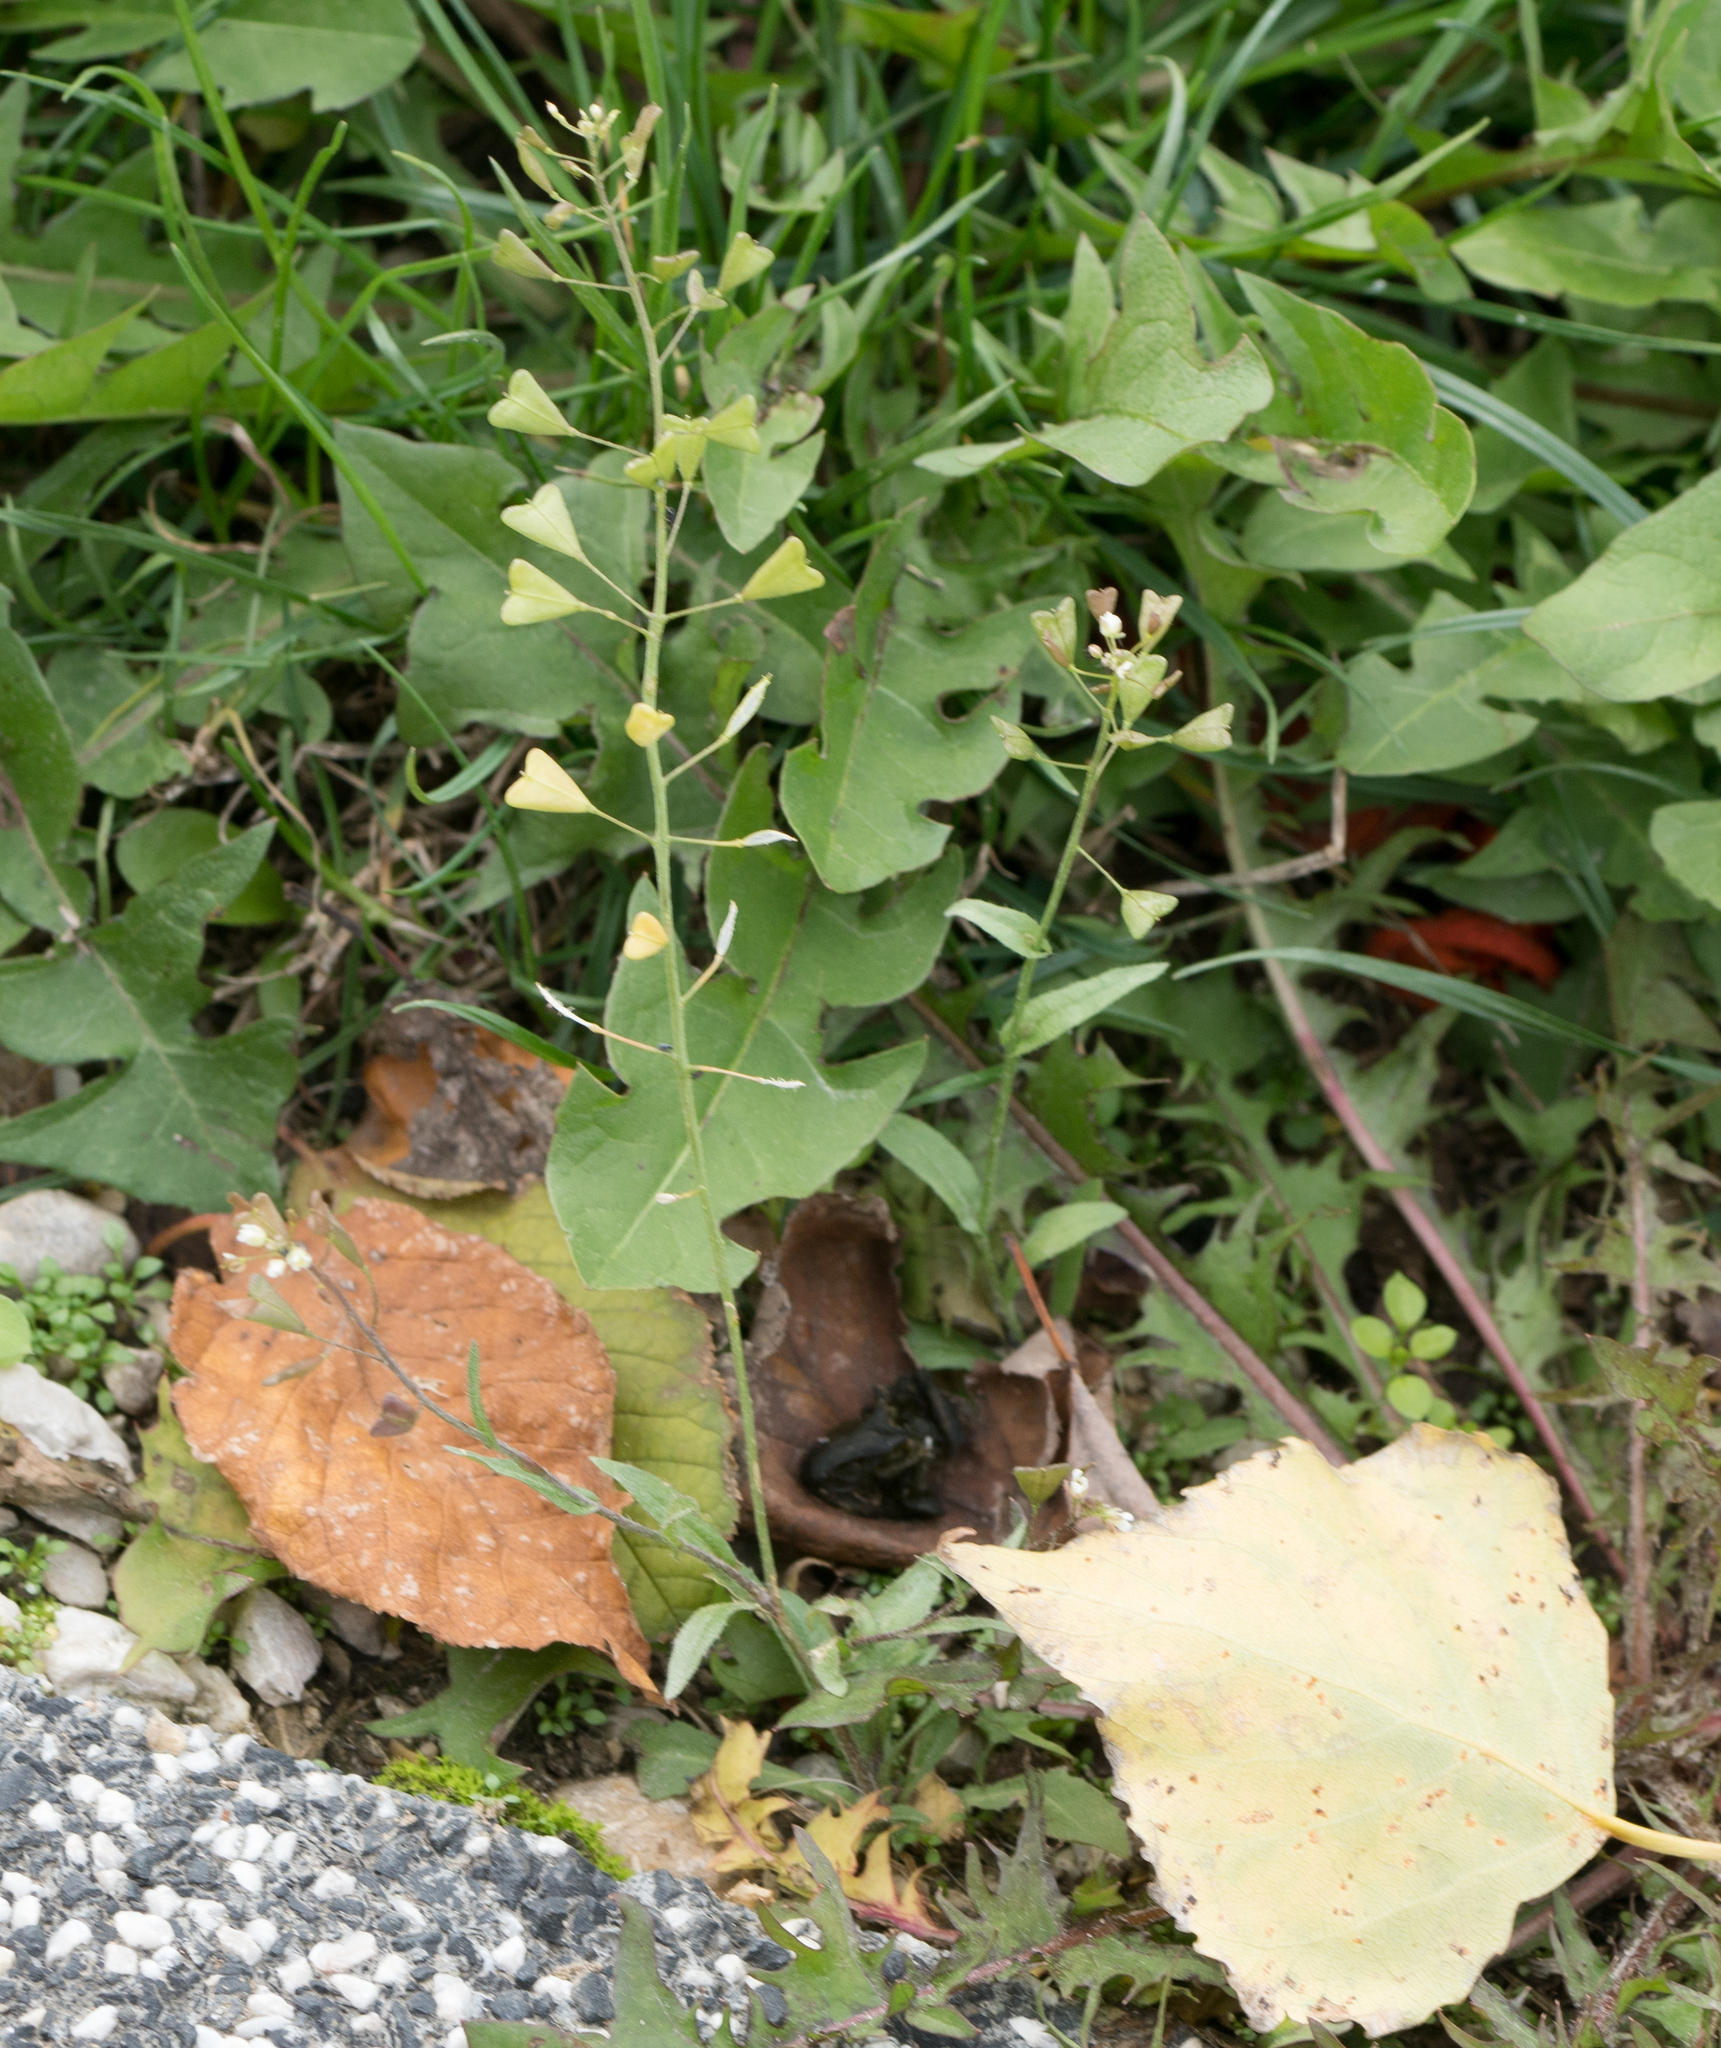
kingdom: Plantae
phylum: Tracheophyta
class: Magnoliopsida
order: Brassicales
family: Brassicaceae
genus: Capsella
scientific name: Capsella bursa-pastoris
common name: Shepherd's purse
